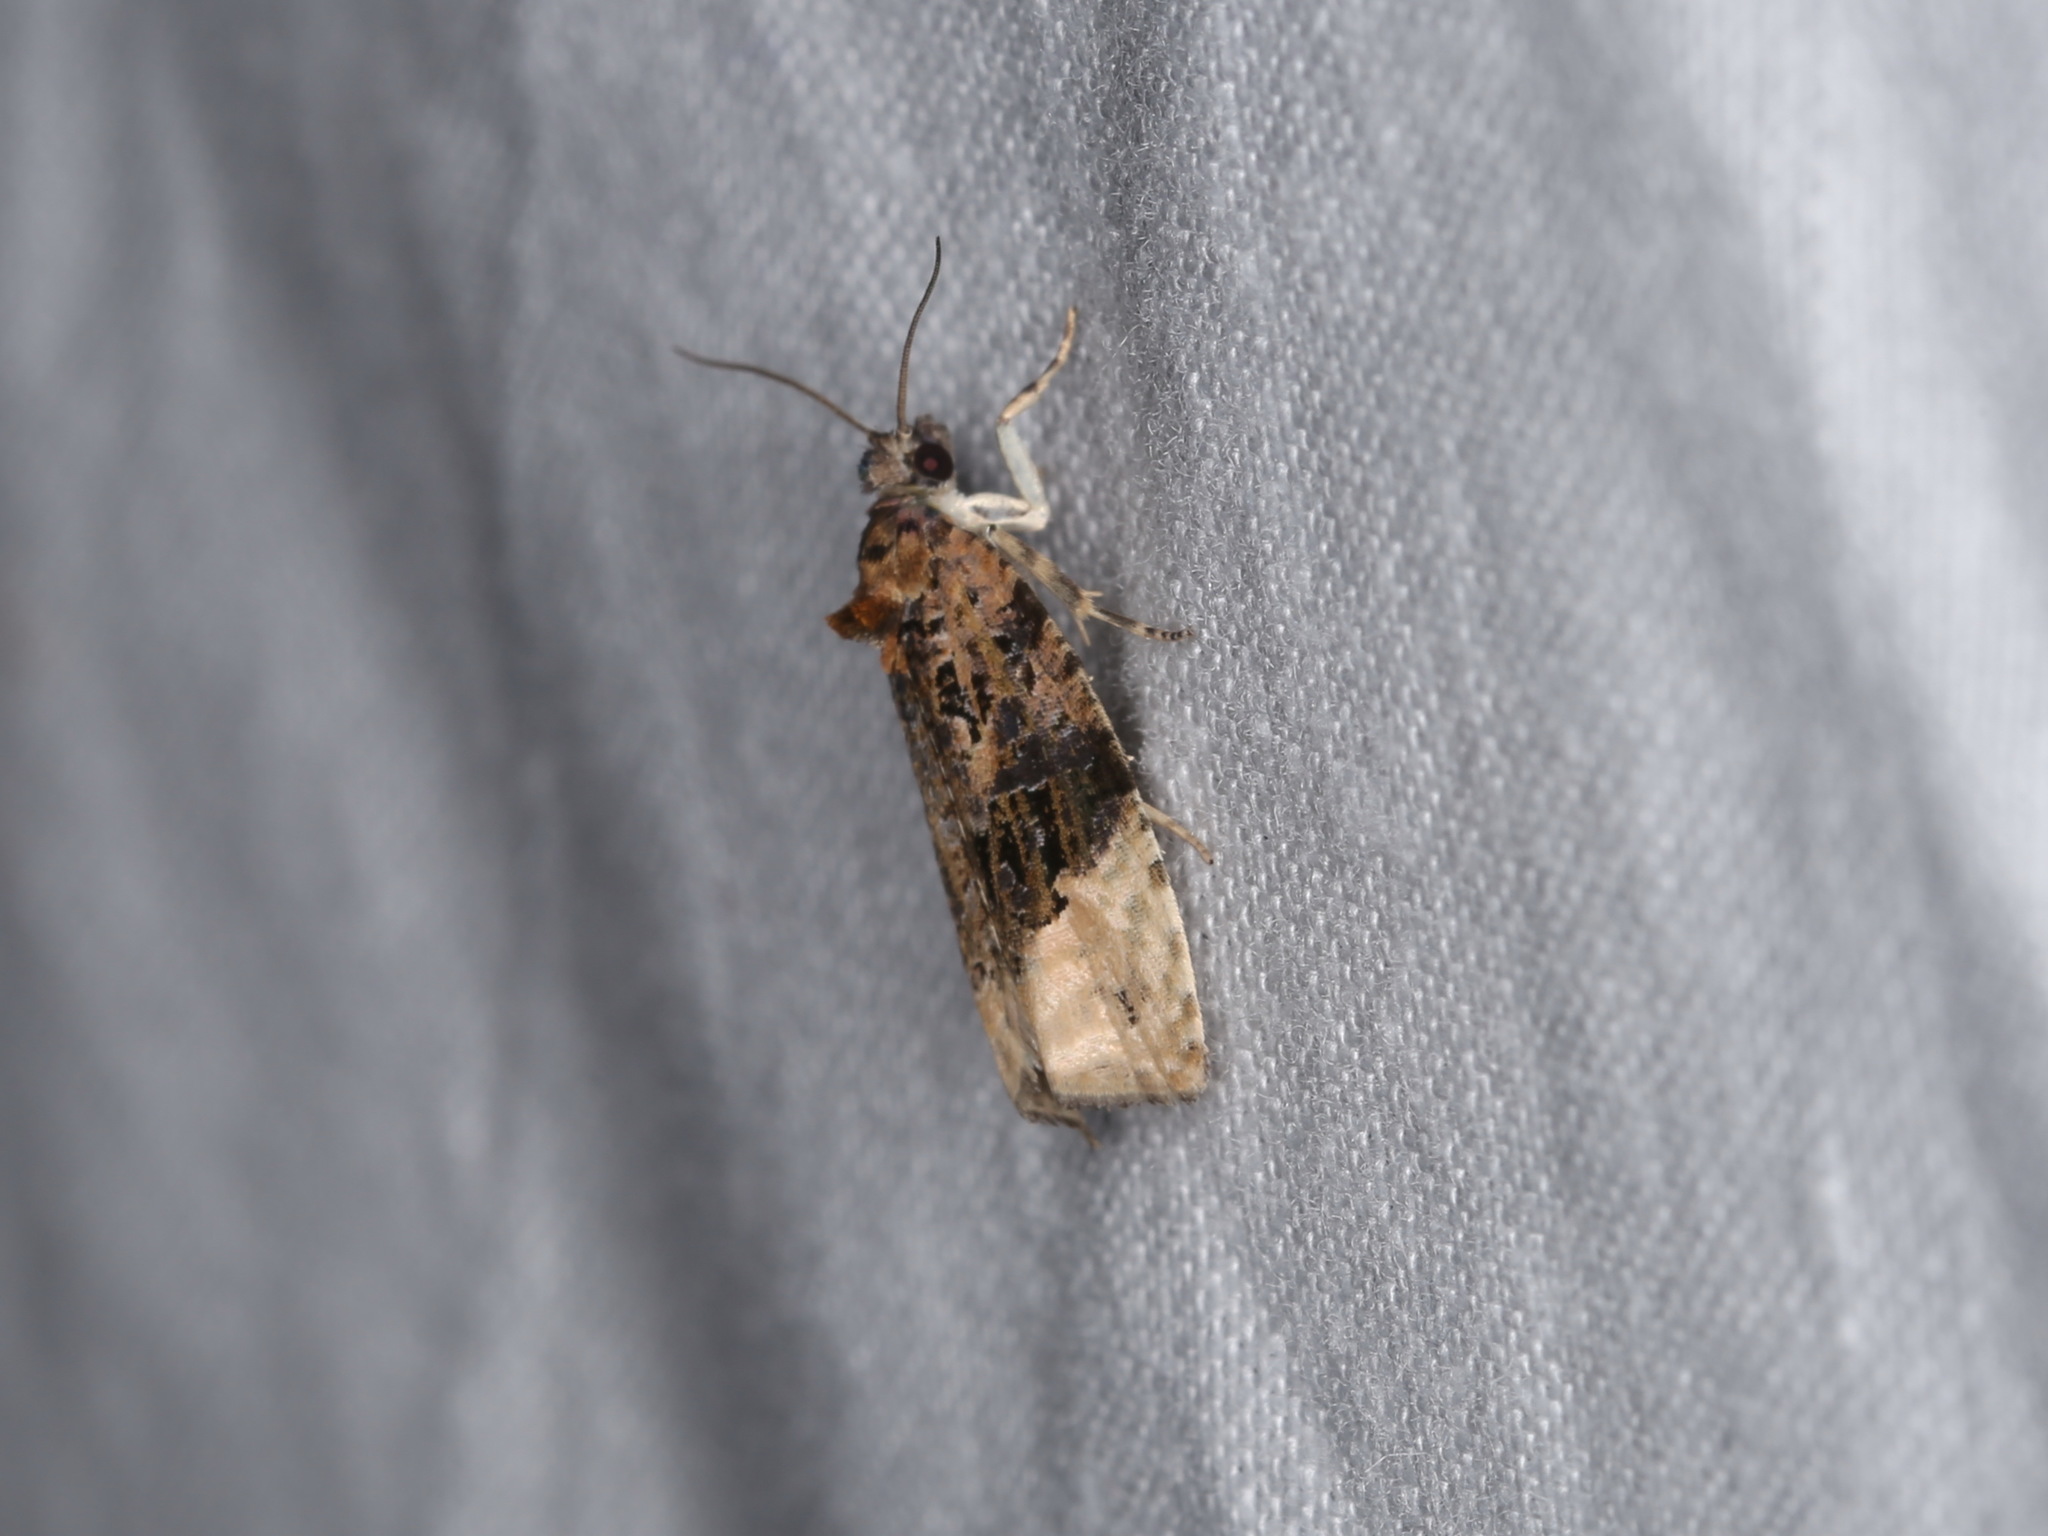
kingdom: Animalia
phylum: Arthropoda
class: Insecta
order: Lepidoptera
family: Tortricidae
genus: Apotomis
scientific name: Apotomis betuletana
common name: Birch marble
